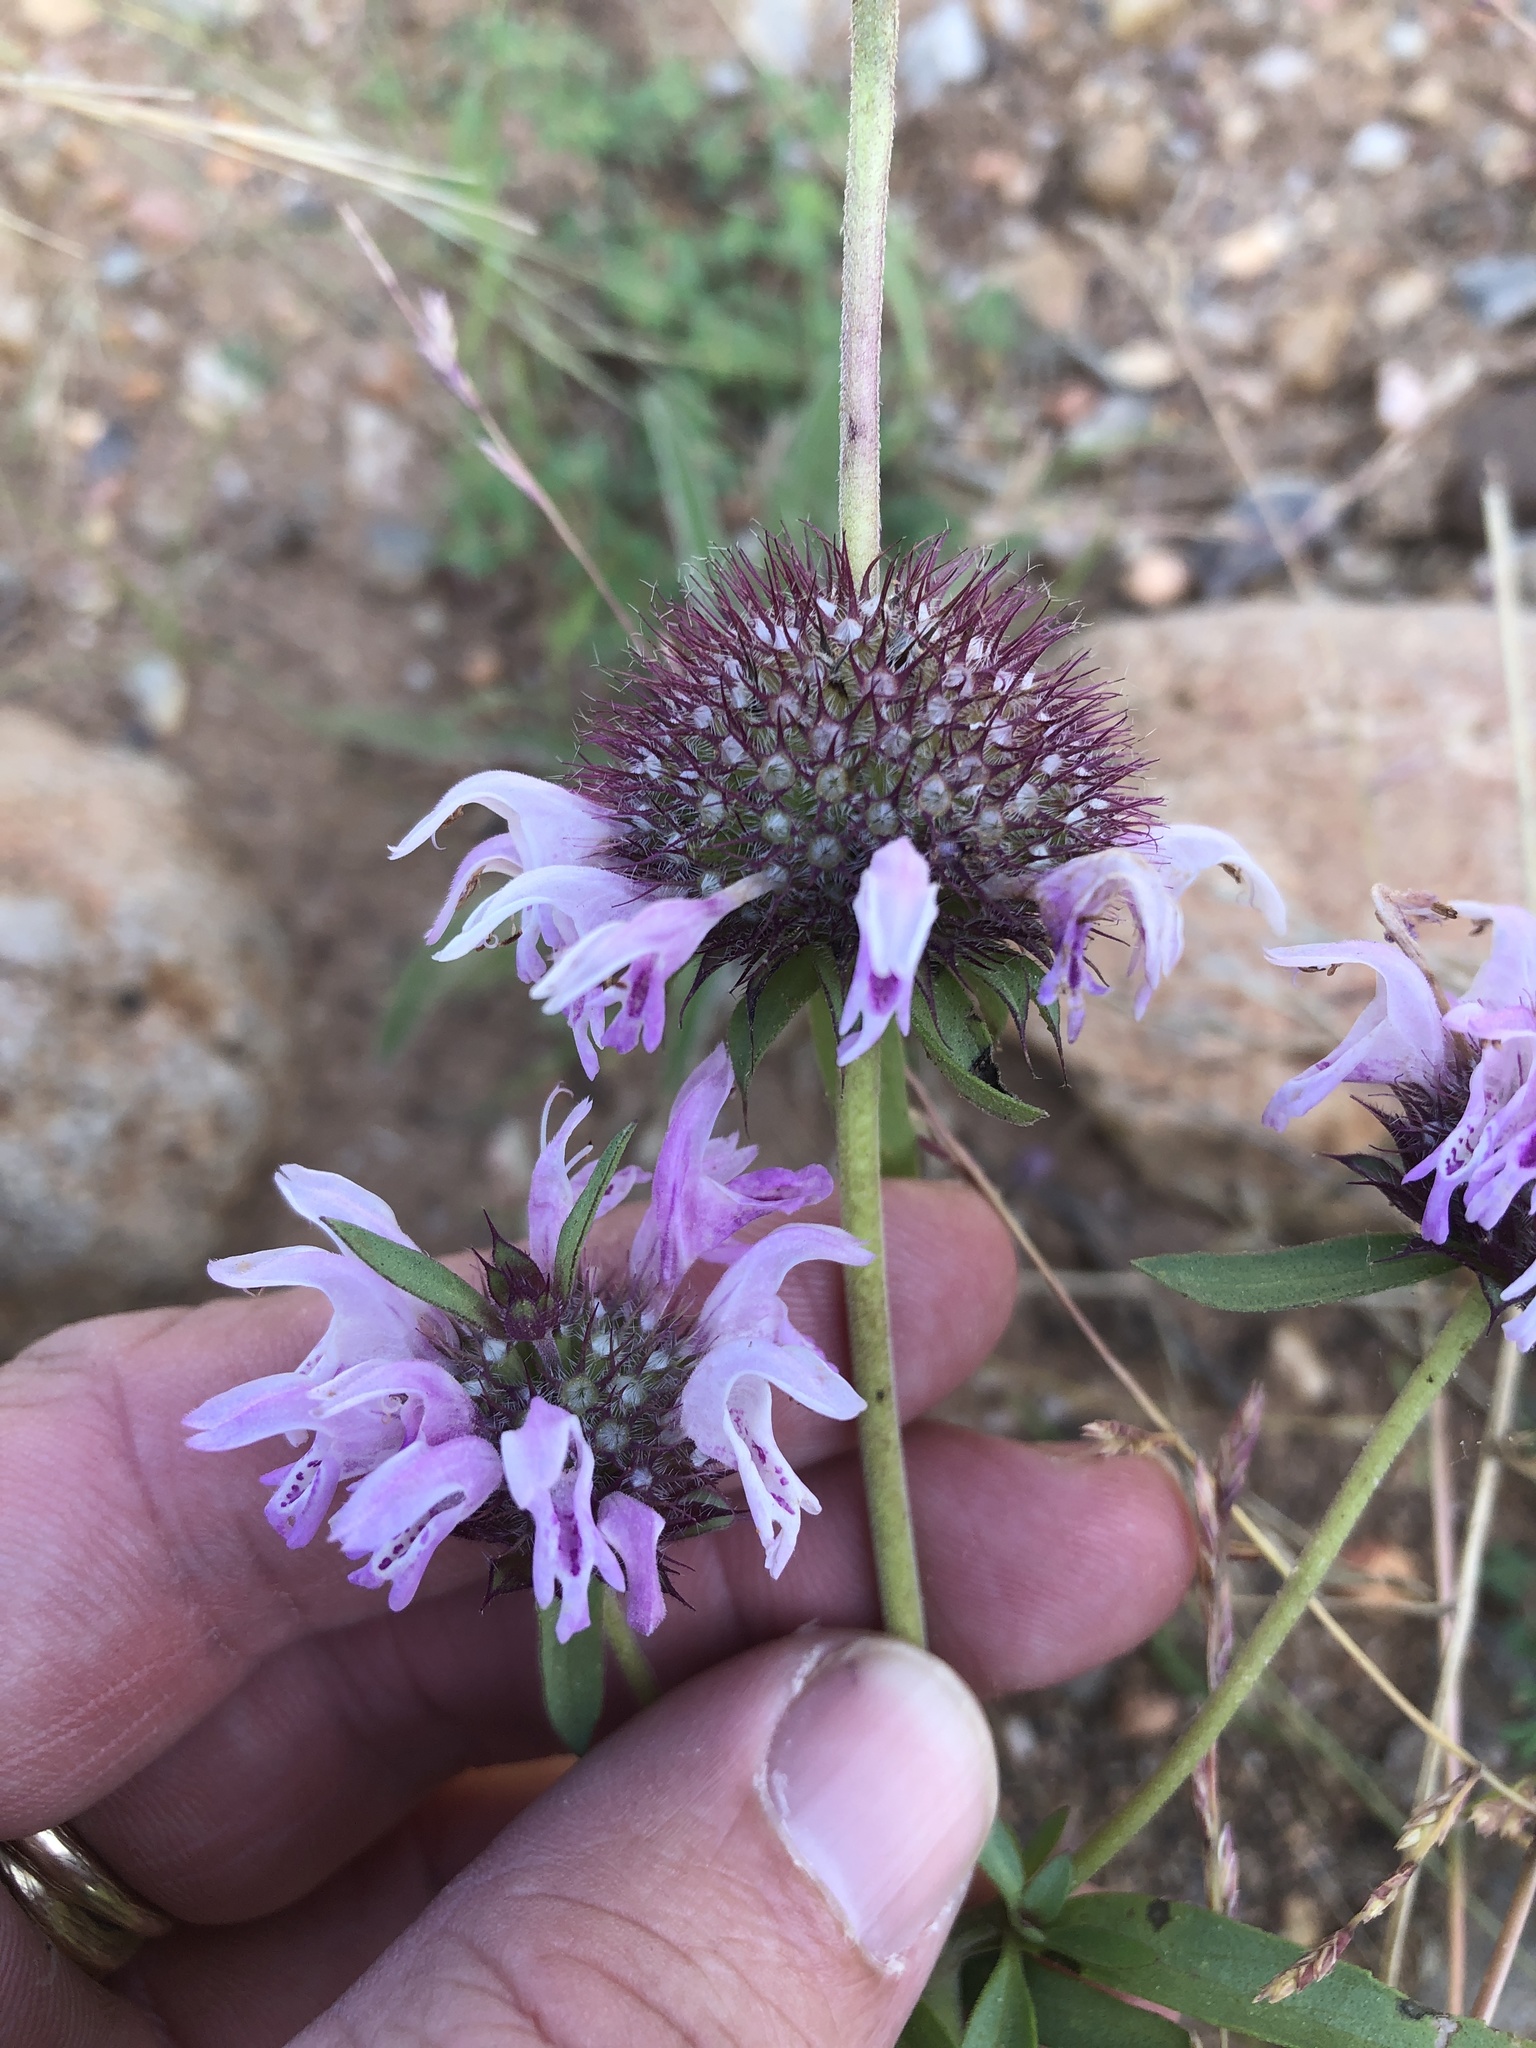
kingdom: Plantae
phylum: Tracheophyta
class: Magnoliopsida
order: Lamiales
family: Lamiaceae
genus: Monarda
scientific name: Monarda clinopodioides
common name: Basil beebalm
